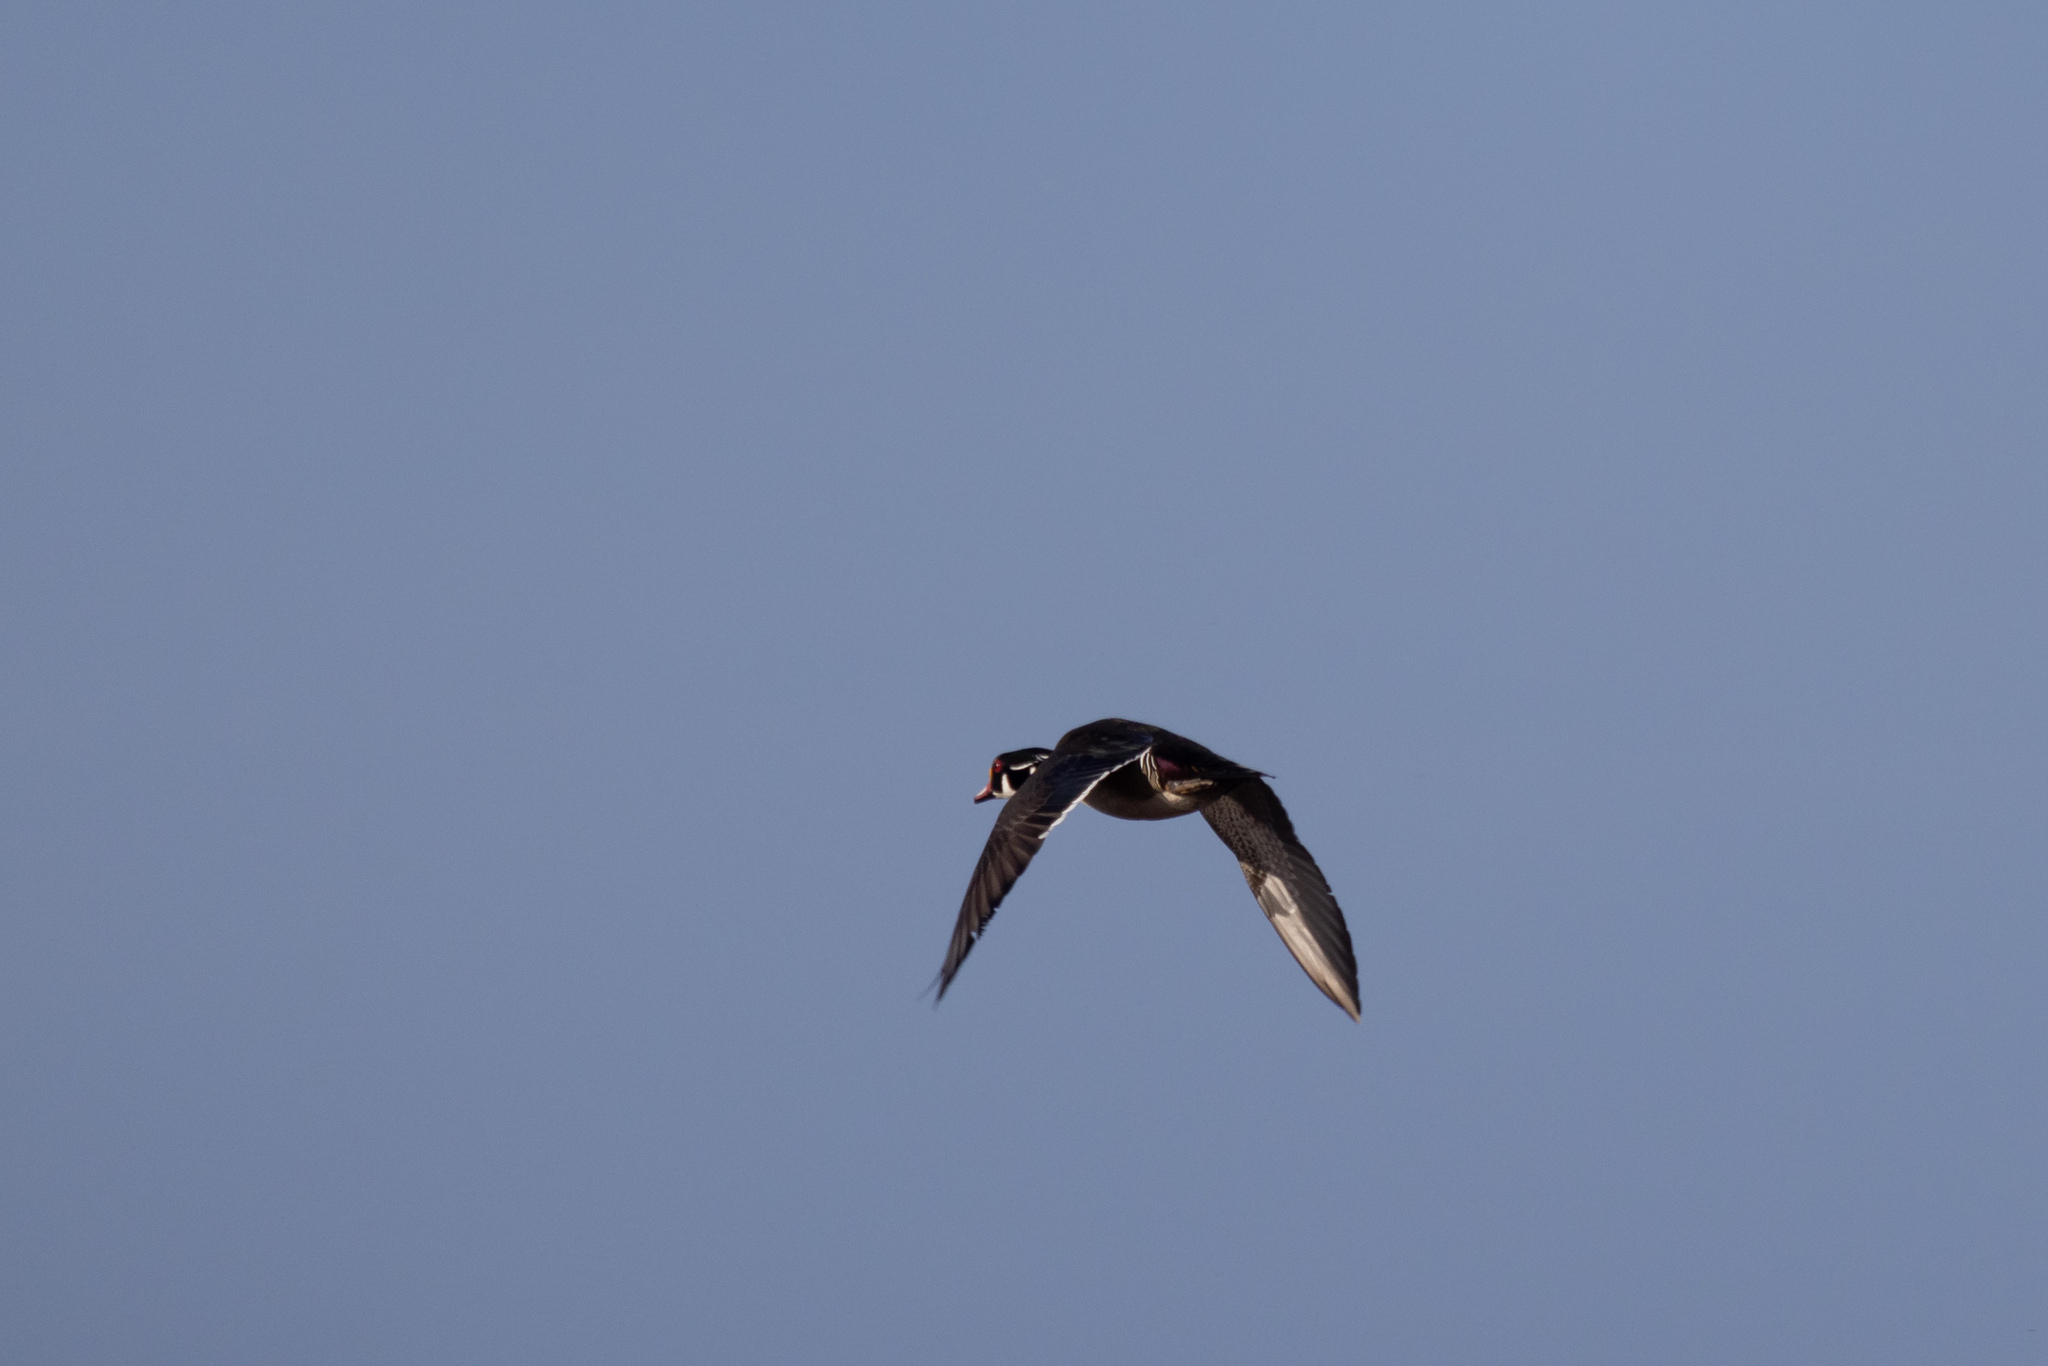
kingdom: Animalia
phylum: Chordata
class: Aves
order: Anseriformes
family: Anatidae
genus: Aix
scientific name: Aix sponsa
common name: Wood duck
